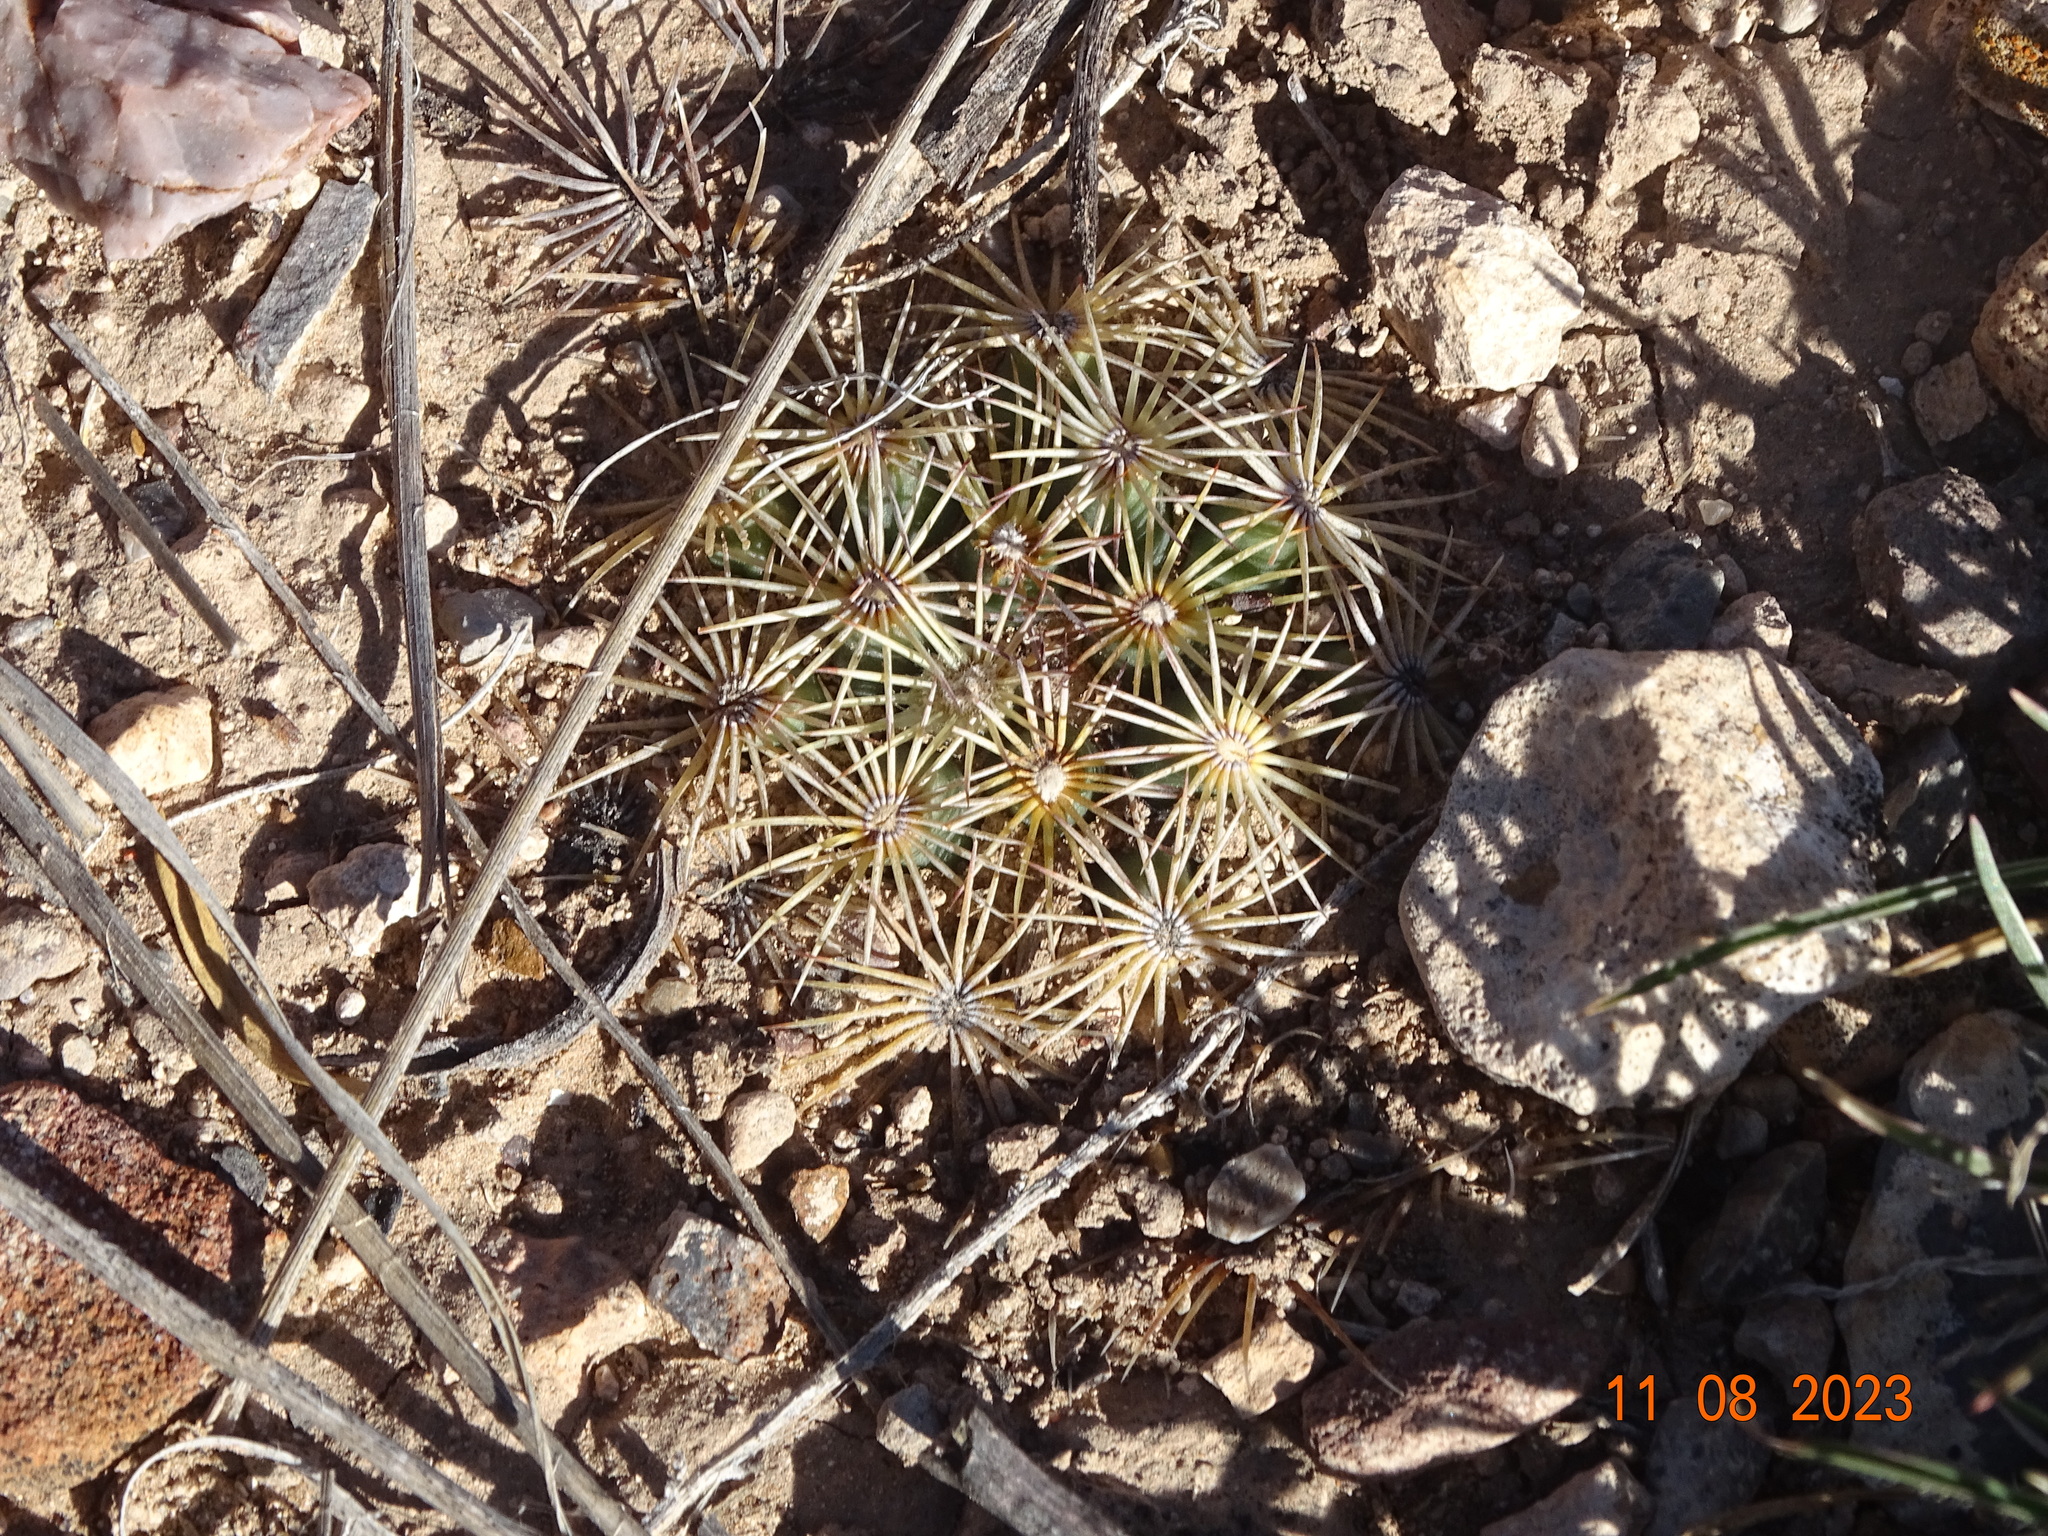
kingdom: Plantae
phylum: Tracheophyta
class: Magnoliopsida
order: Caryophyllales
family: Cactaceae
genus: Coryphantha
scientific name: Coryphantha delicata
